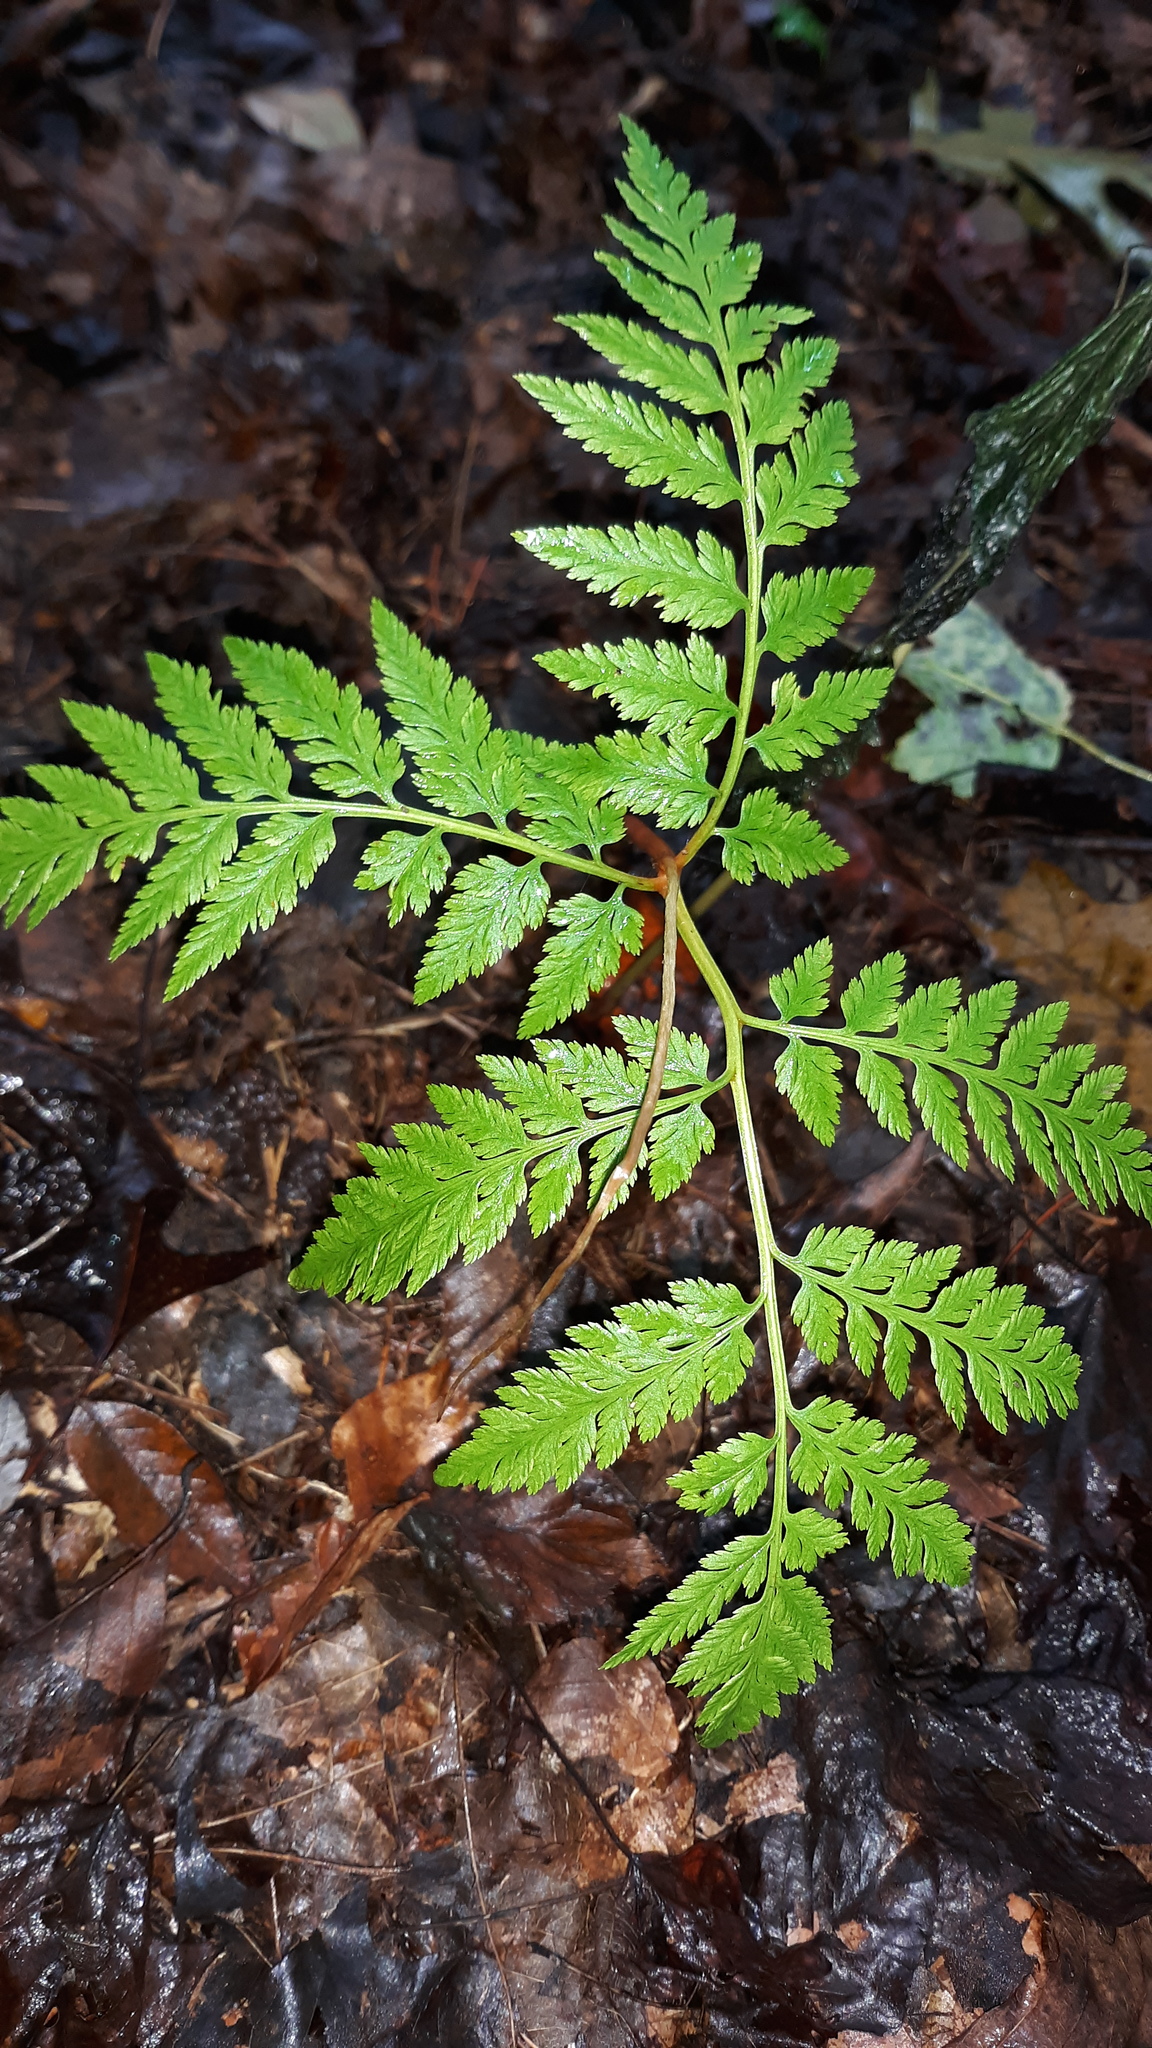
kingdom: Plantae
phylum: Tracheophyta
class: Polypodiopsida
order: Ophioglossales
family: Ophioglossaceae
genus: Botrypus
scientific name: Botrypus virginianus
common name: Common grapefern
